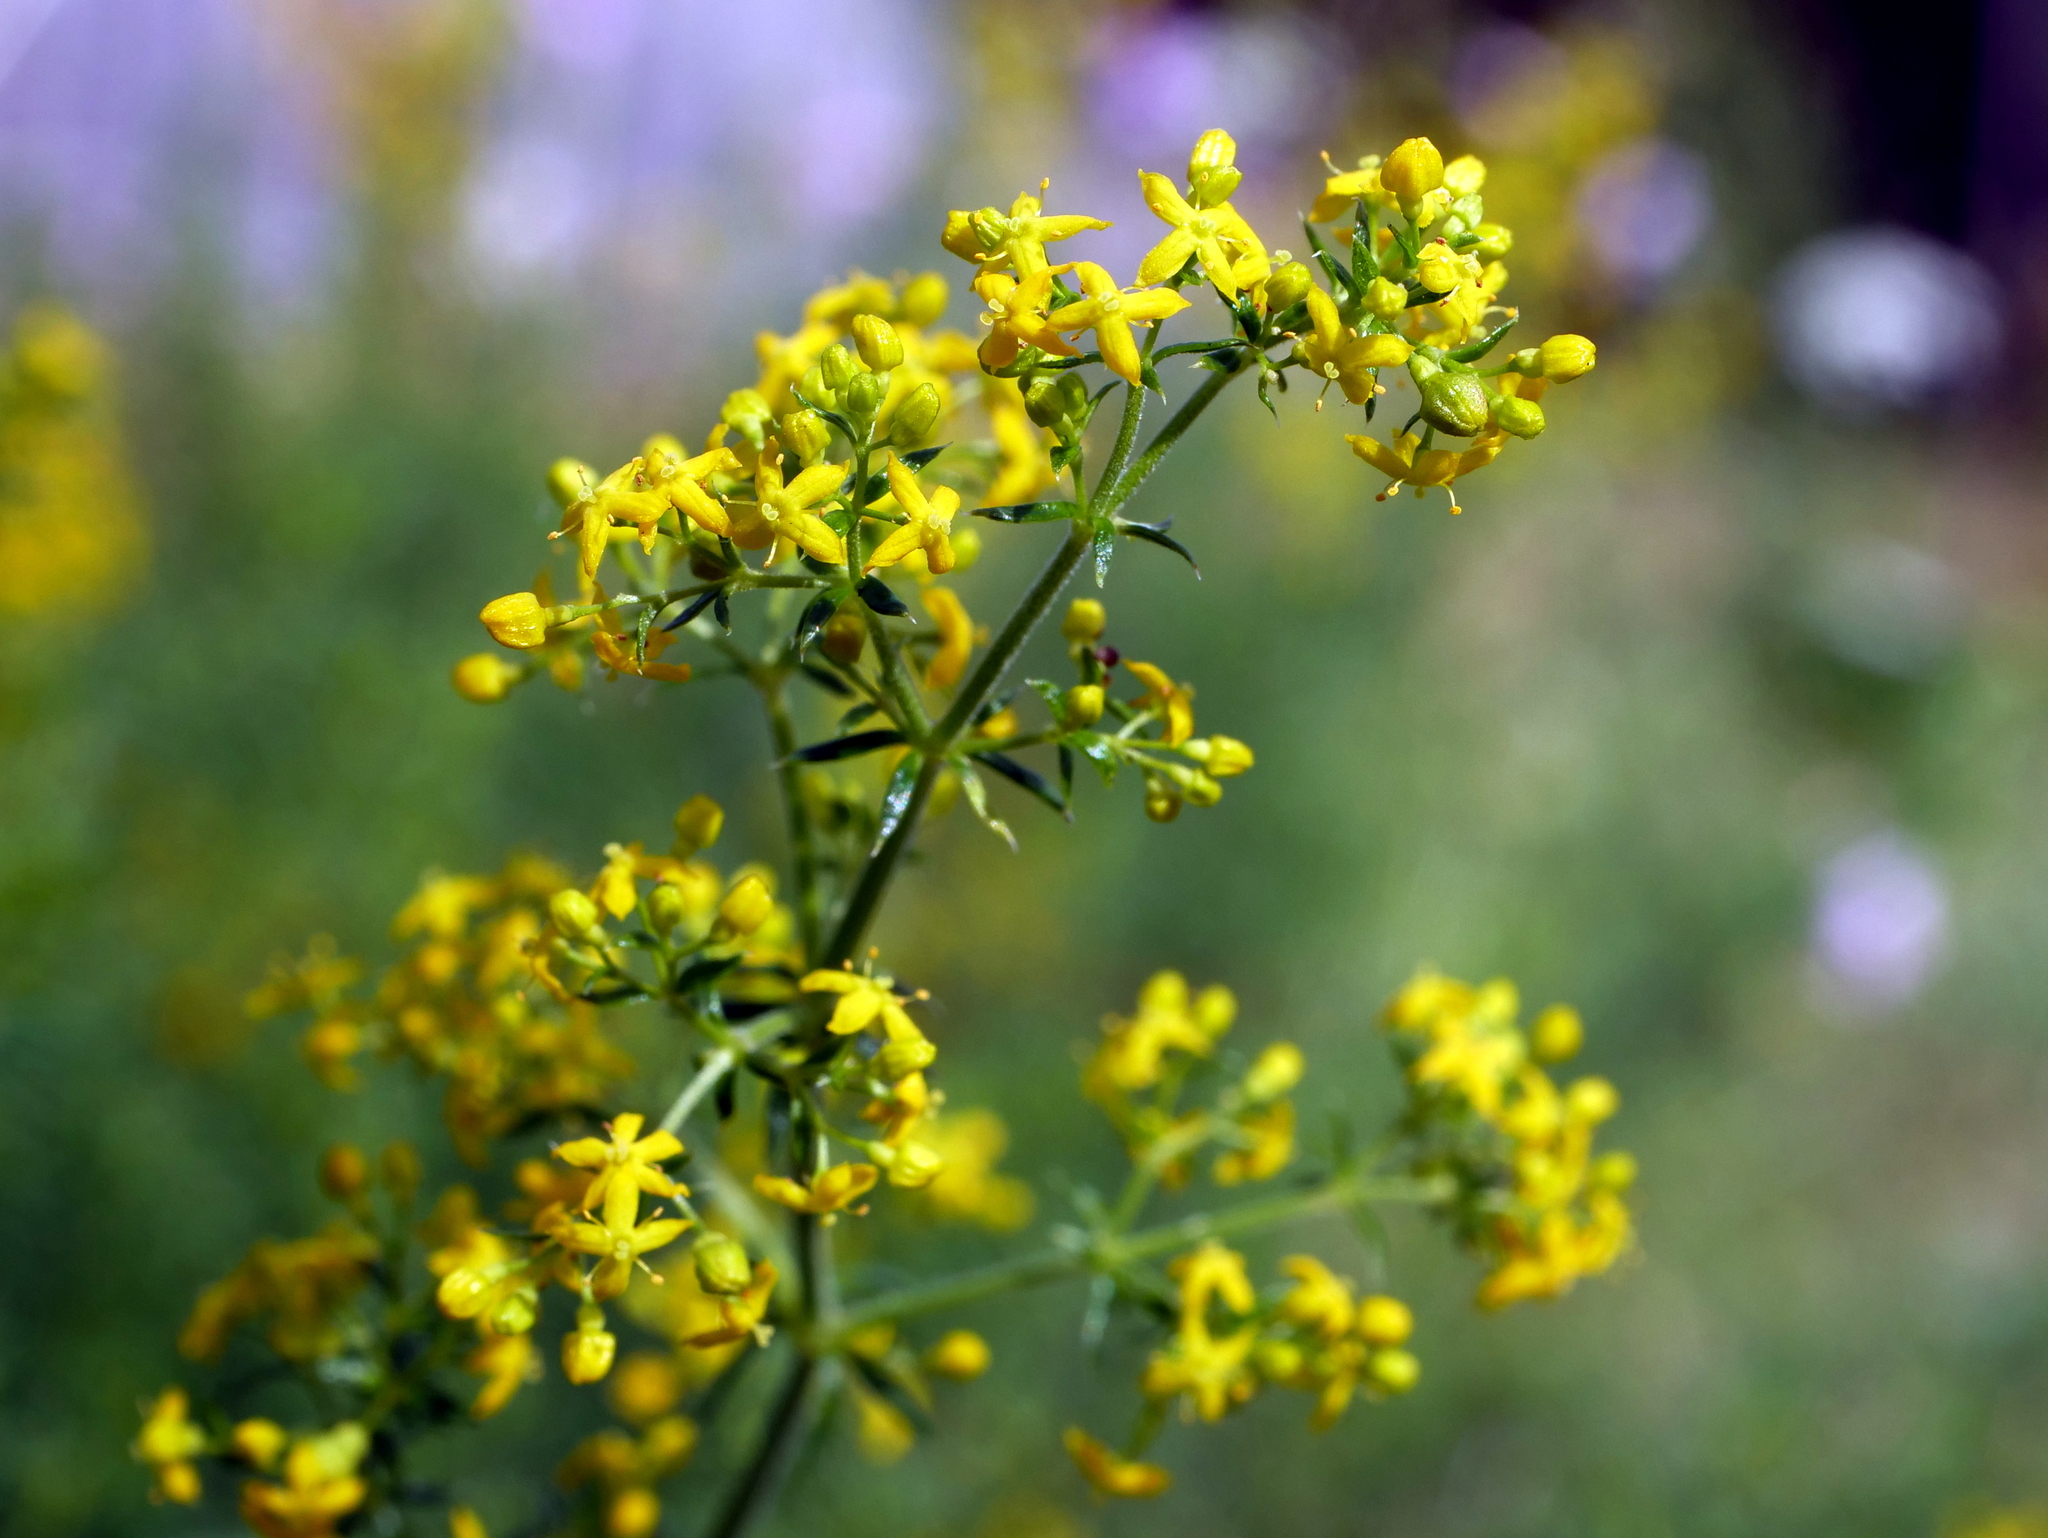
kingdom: Plantae
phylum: Tracheophyta
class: Magnoliopsida
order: Gentianales
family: Rubiaceae
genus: Galium
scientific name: Galium verum
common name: Lady's bedstraw
